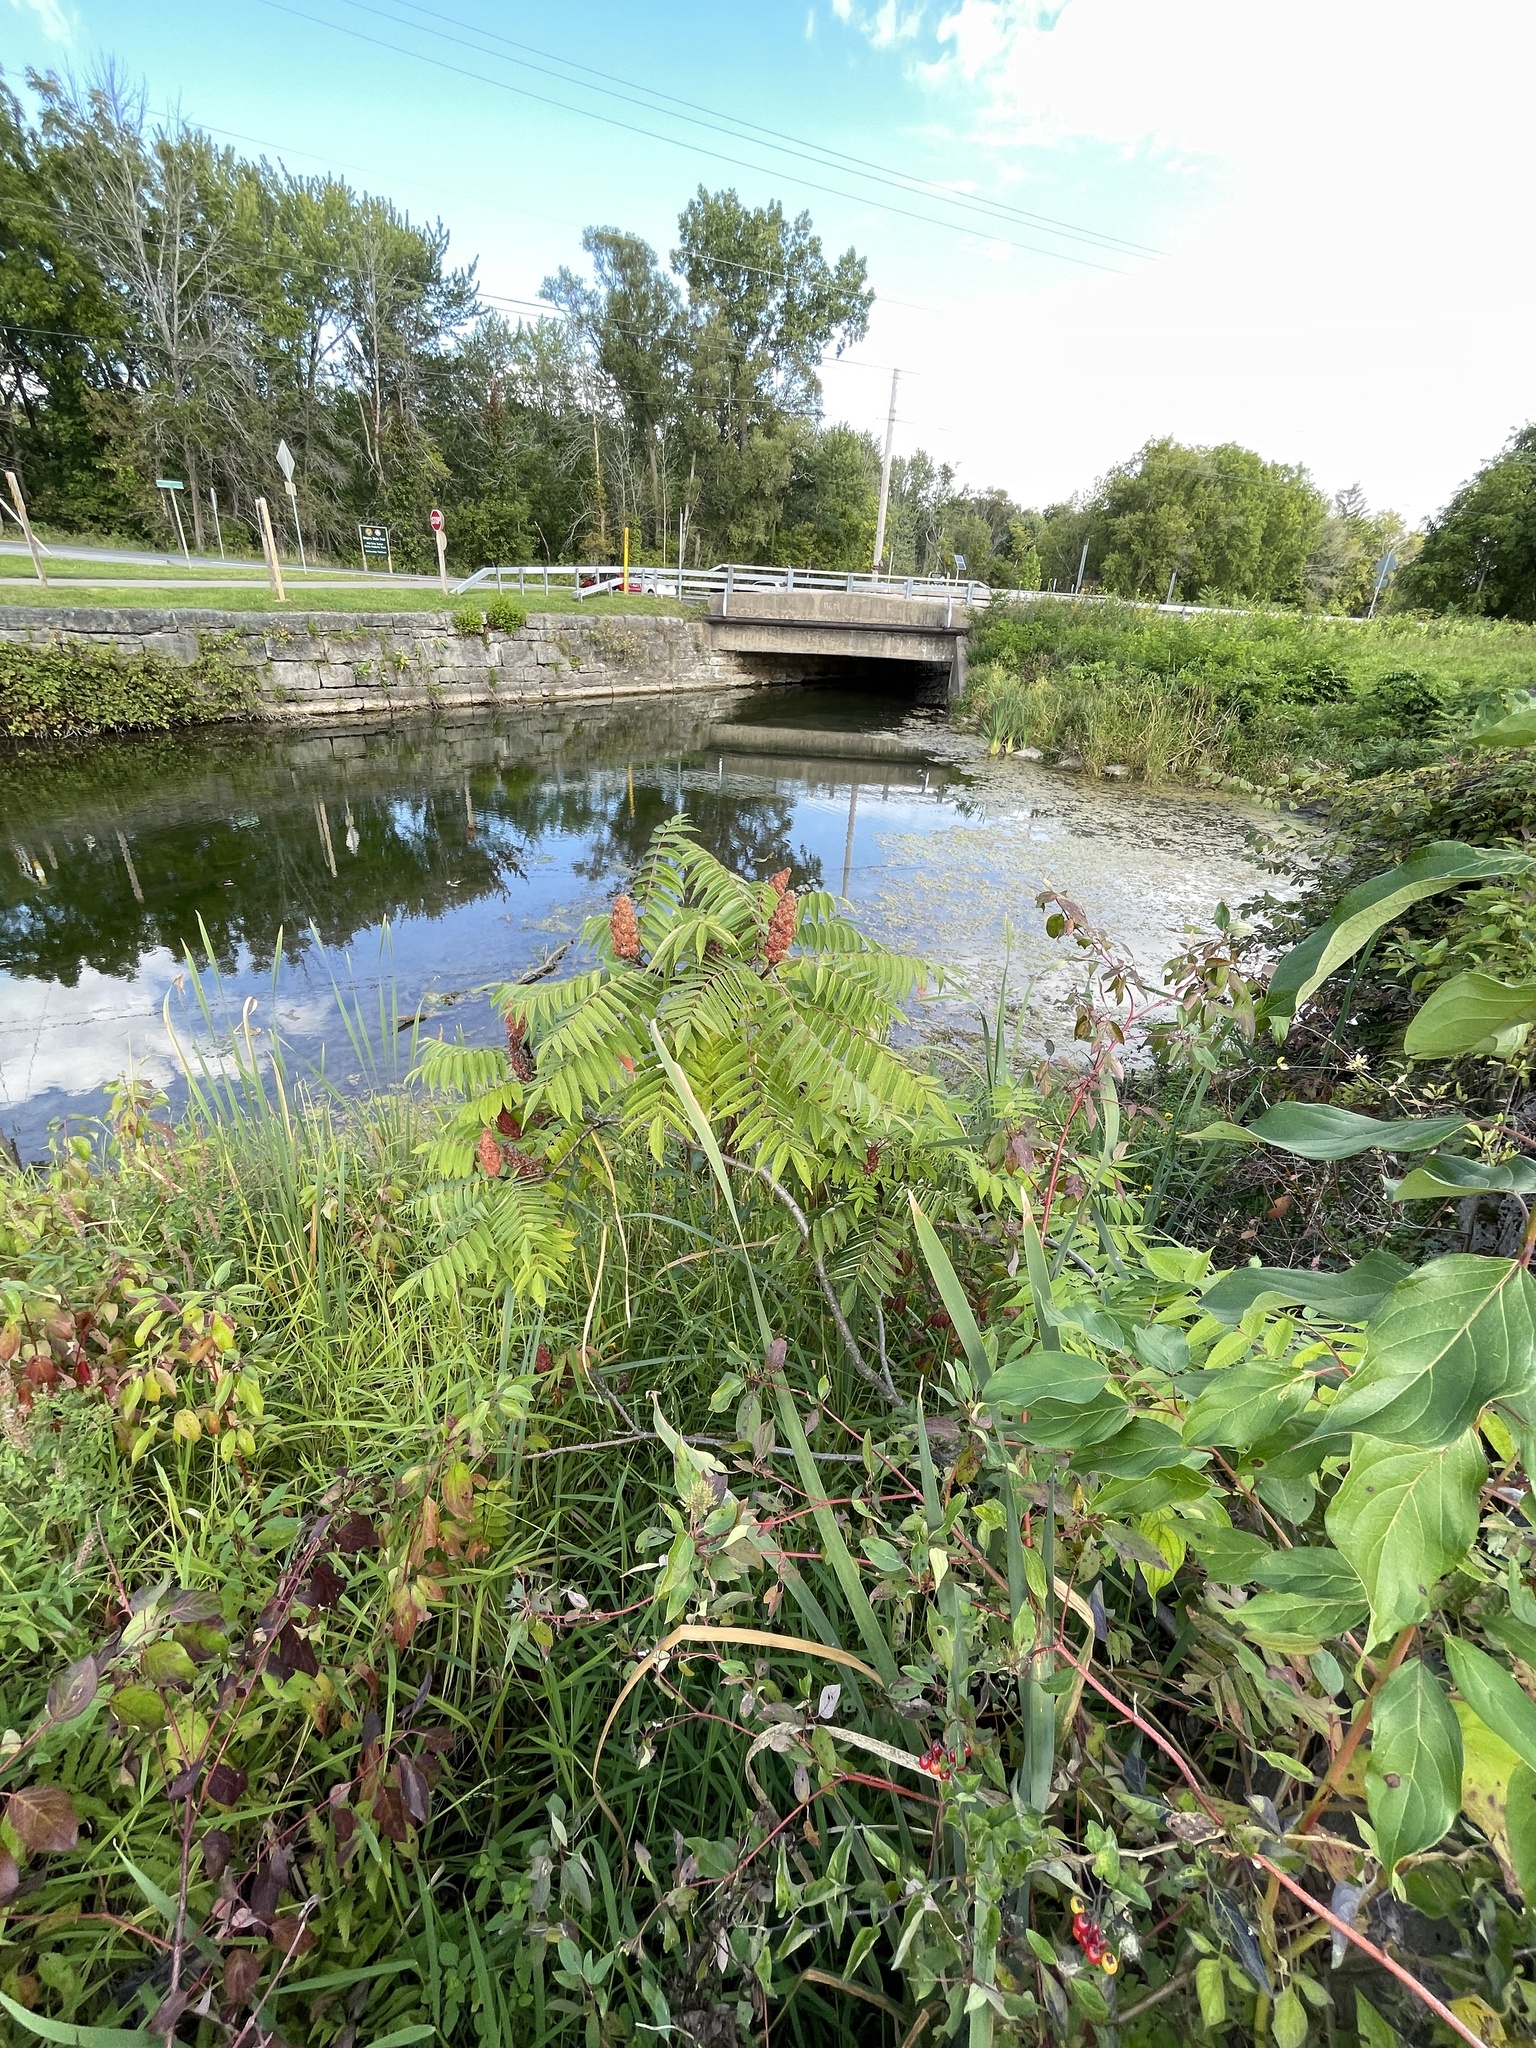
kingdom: Plantae
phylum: Tracheophyta
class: Magnoliopsida
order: Sapindales
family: Anacardiaceae
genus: Rhus
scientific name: Rhus typhina
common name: Staghorn sumac
